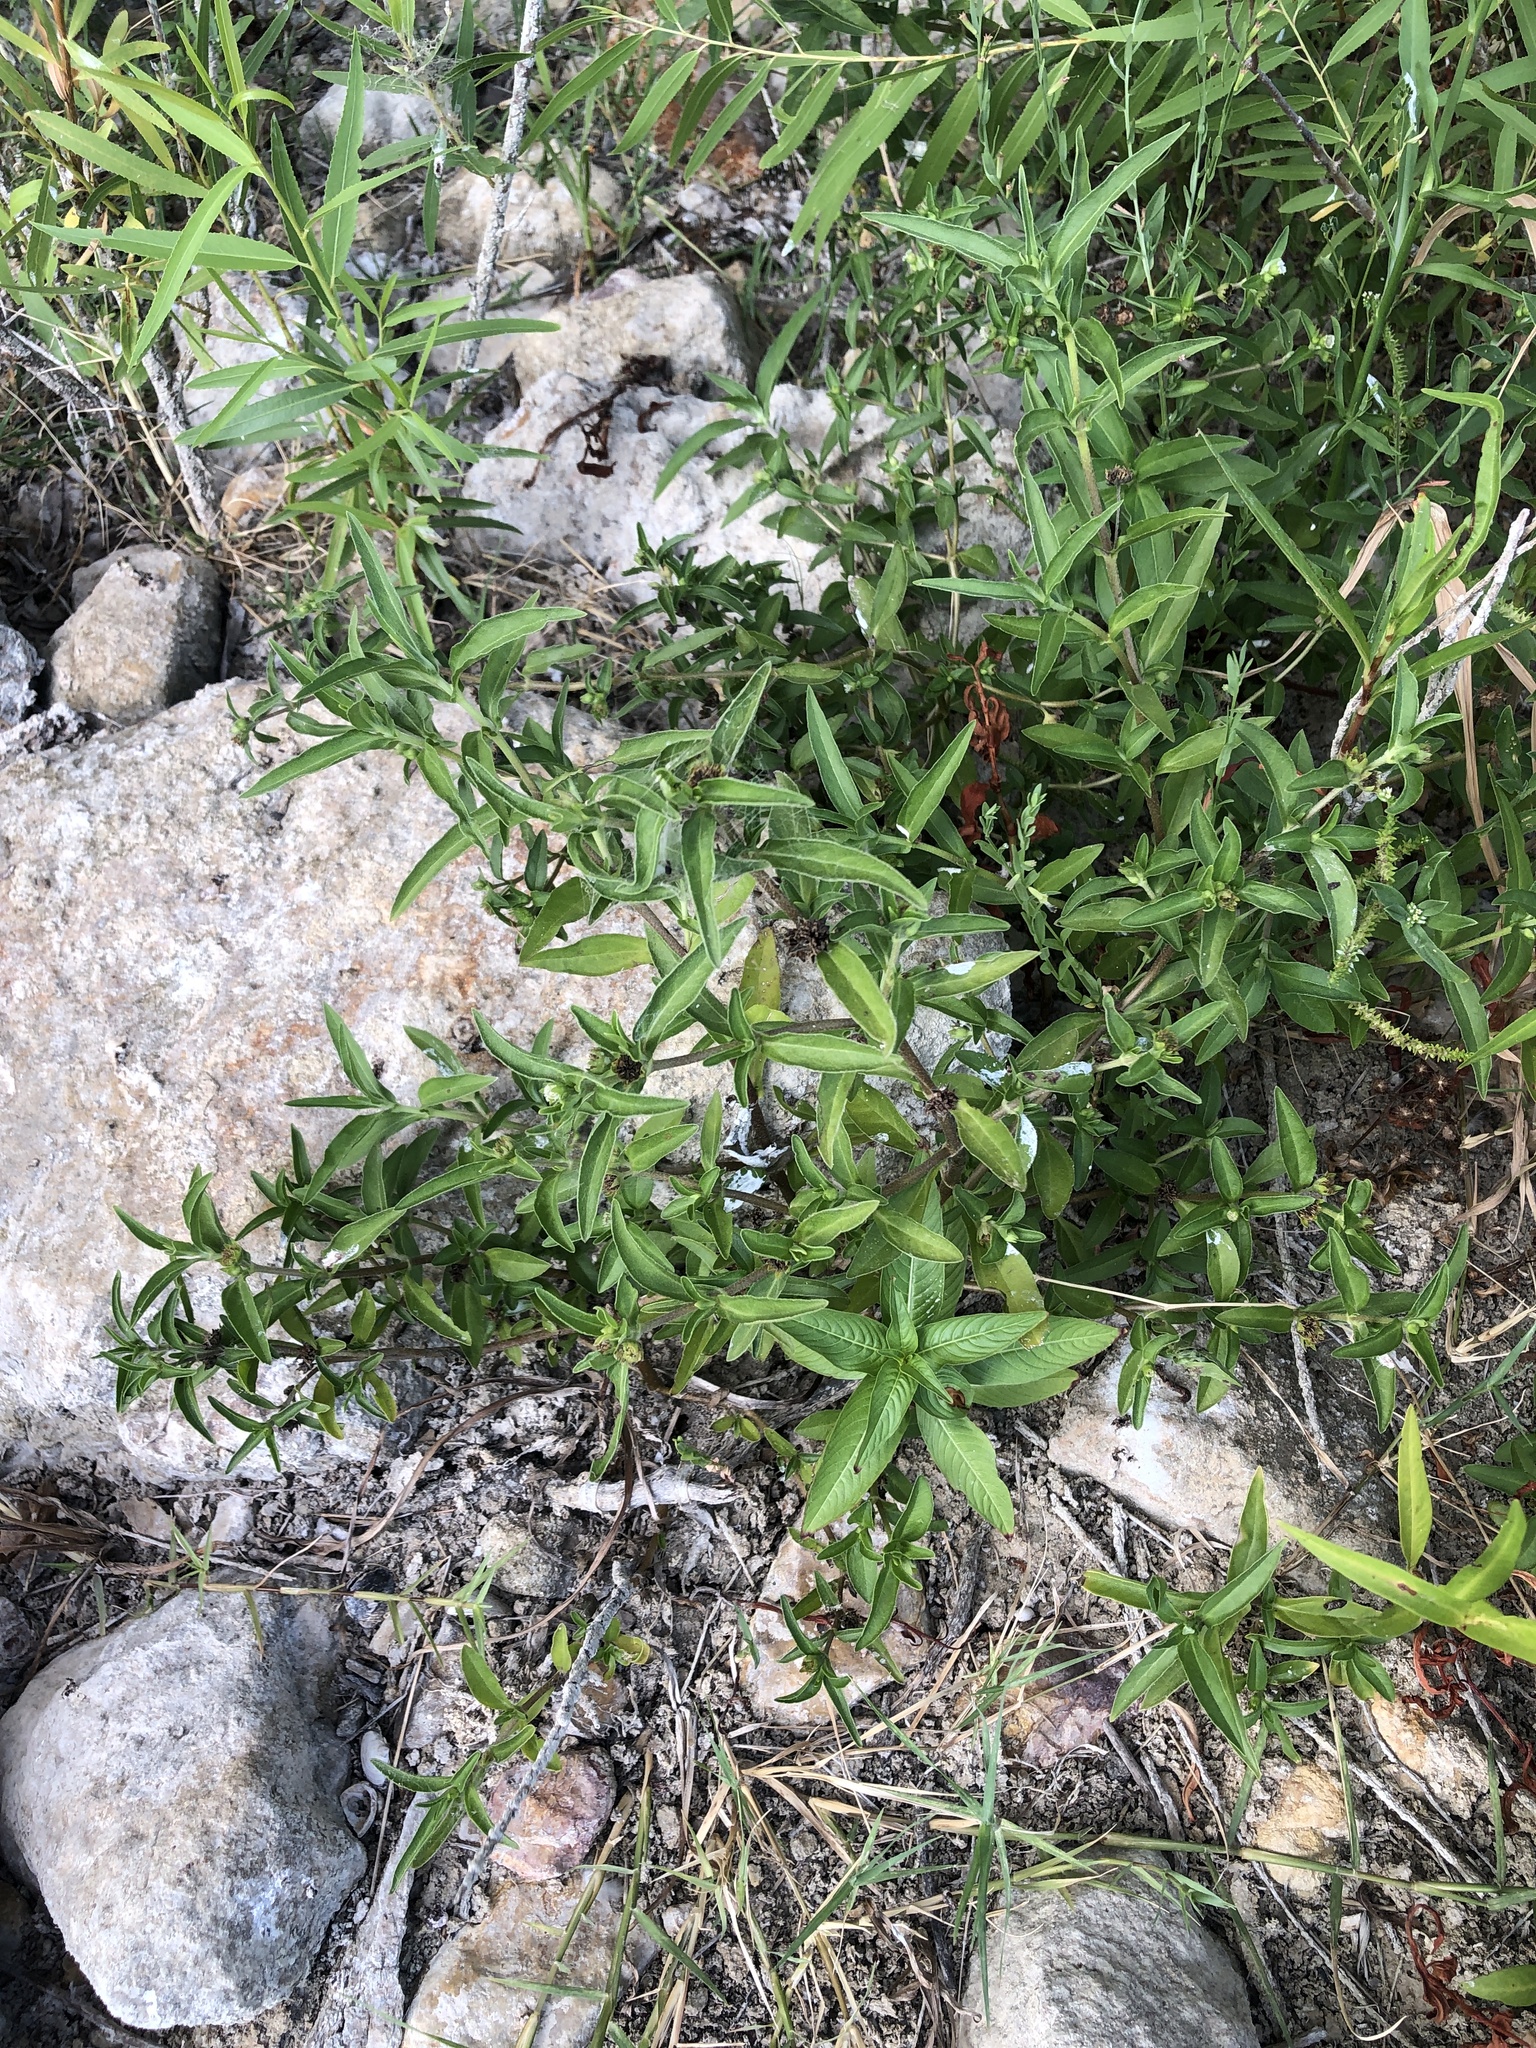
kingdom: Plantae
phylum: Tracheophyta
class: Magnoliopsida
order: Asterales
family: Asteraceae
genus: Eclipta
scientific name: Eclipta prostrata
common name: False daisy
